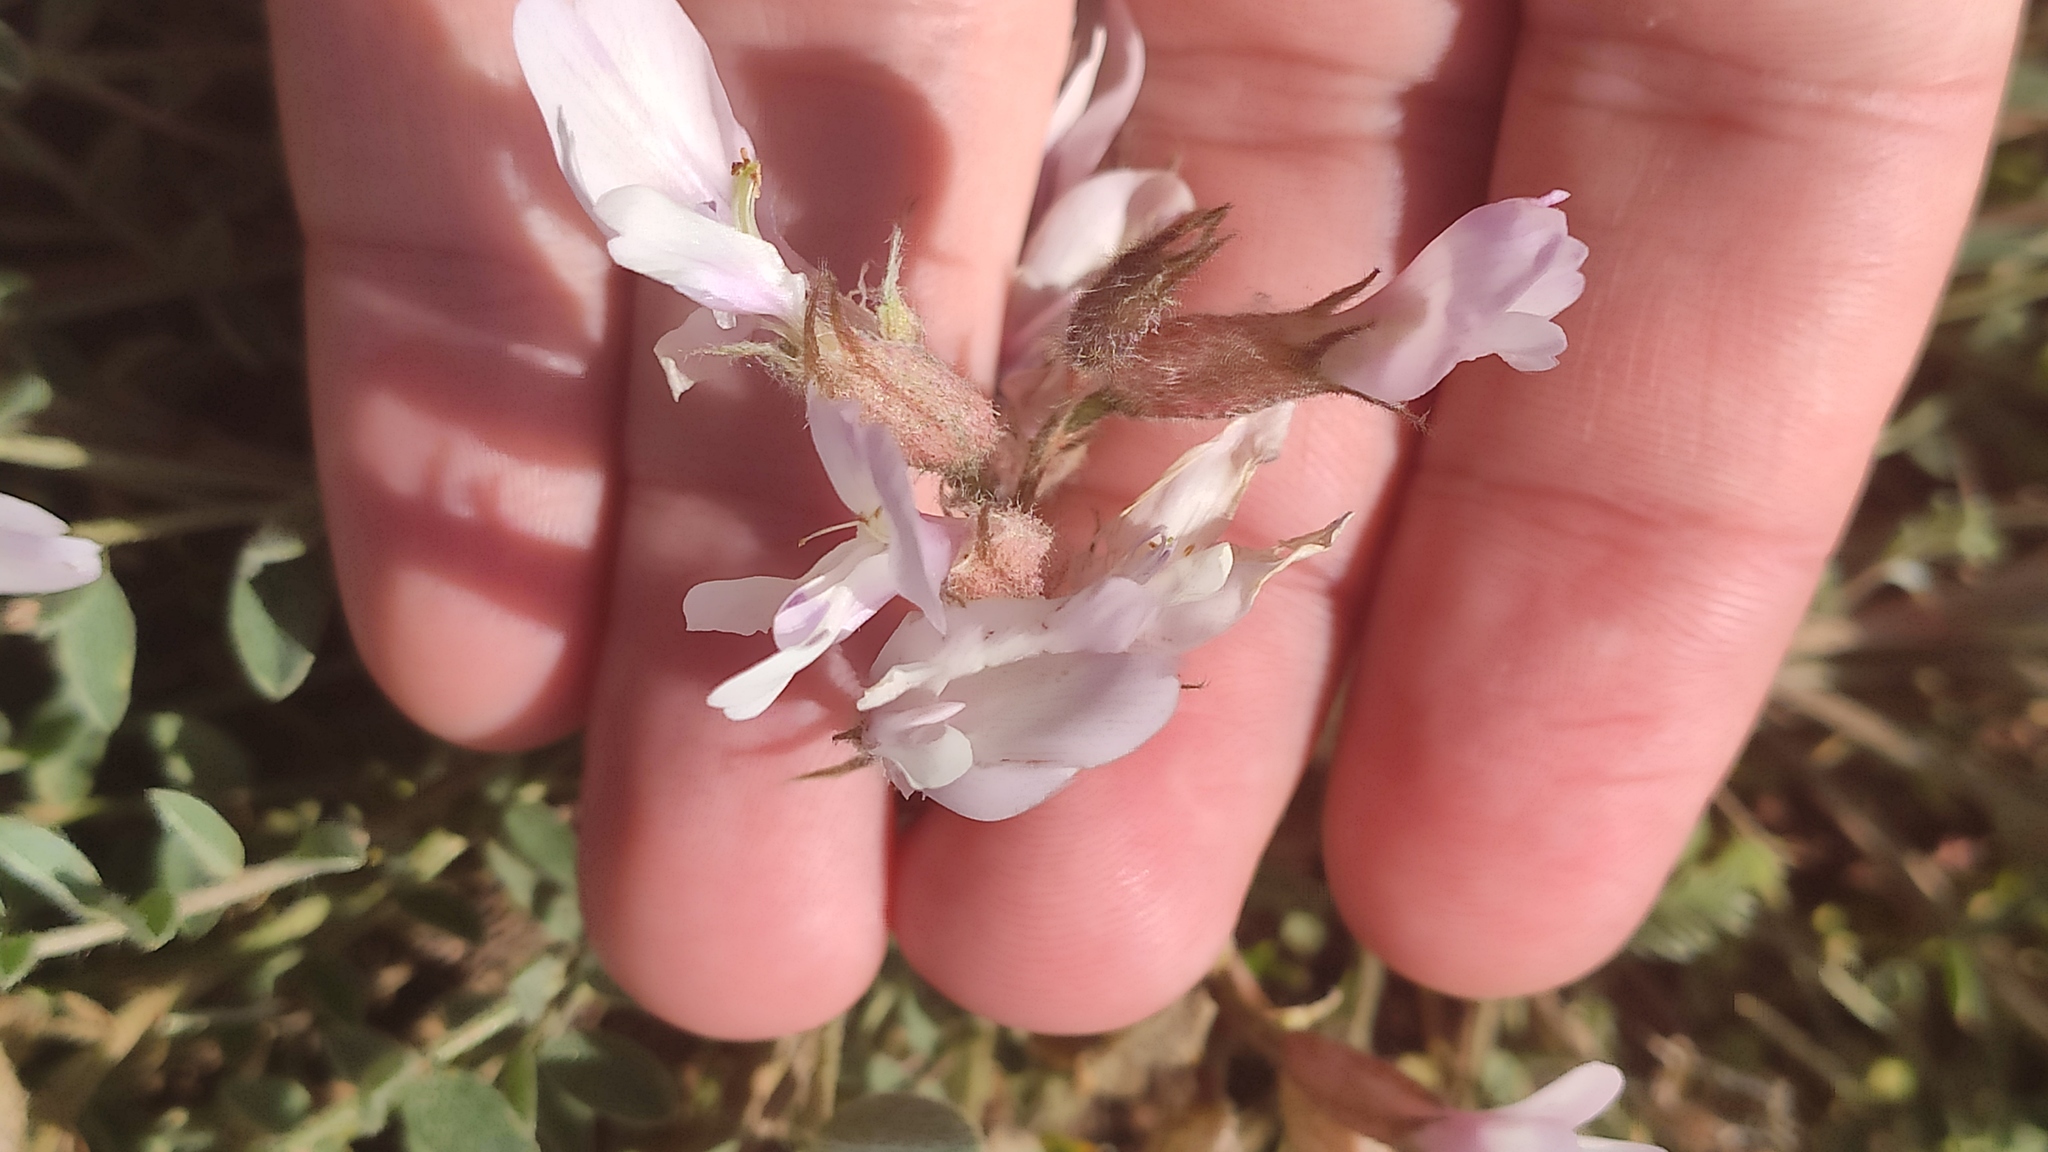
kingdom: Plantae
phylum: Tracheophyta
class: Magnoliopsida
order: Fabales
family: Fabaceae
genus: Astragalus
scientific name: Astragalus rupifragus
